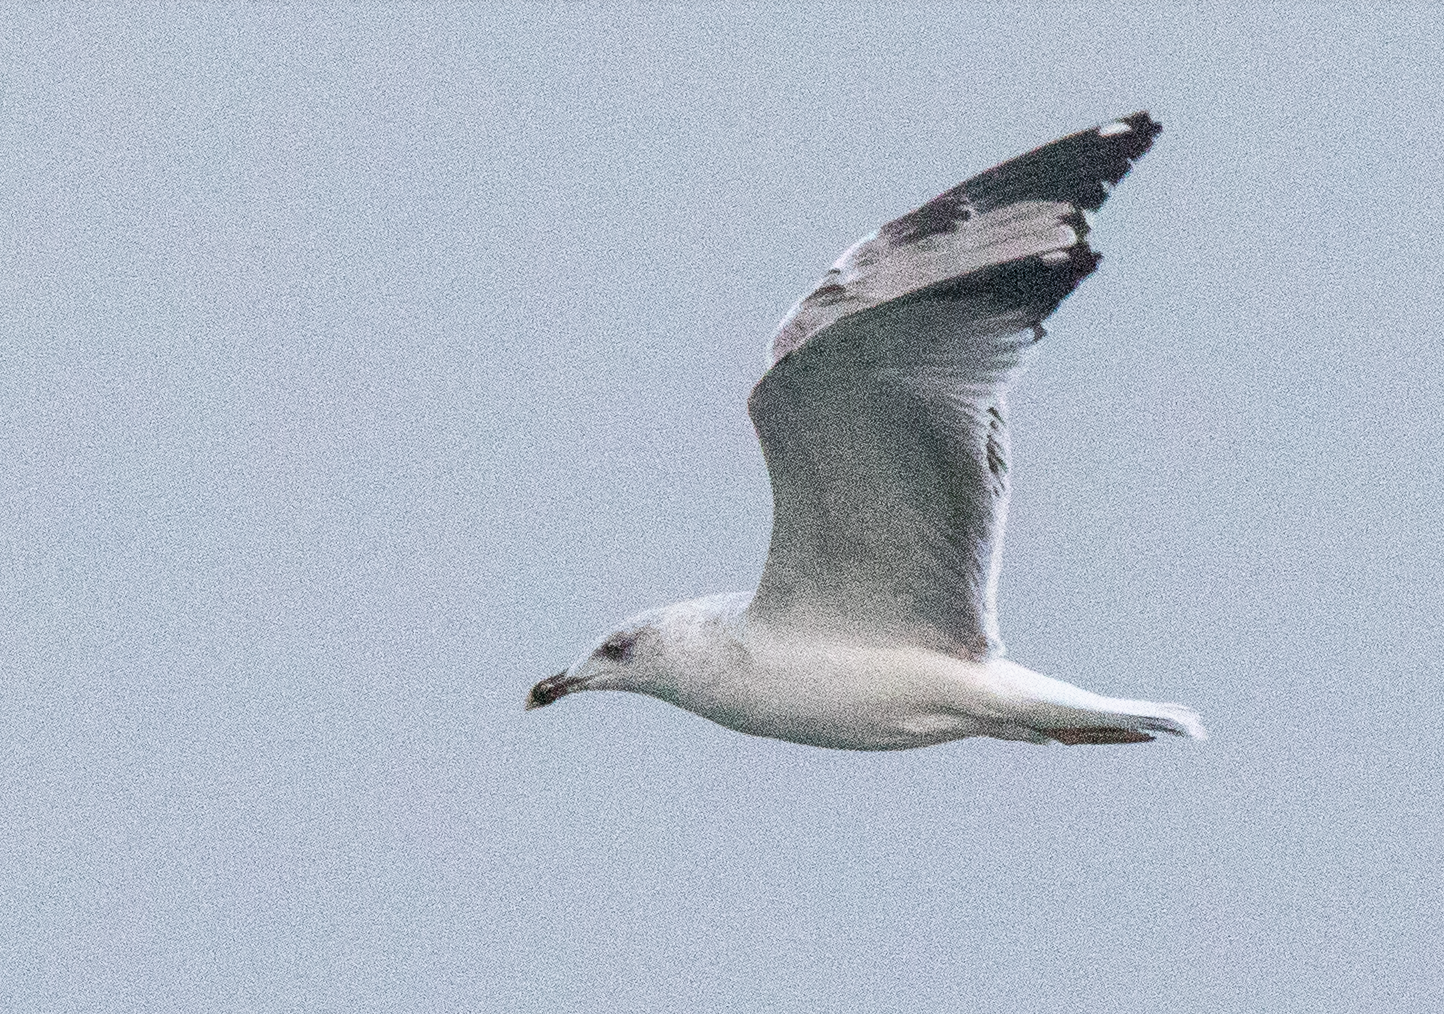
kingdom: Animalia
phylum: Chordata
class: Aves
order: Charadriiformes
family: Laridae
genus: Larus
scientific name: Larus michahellis
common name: Yellow-legged gull
